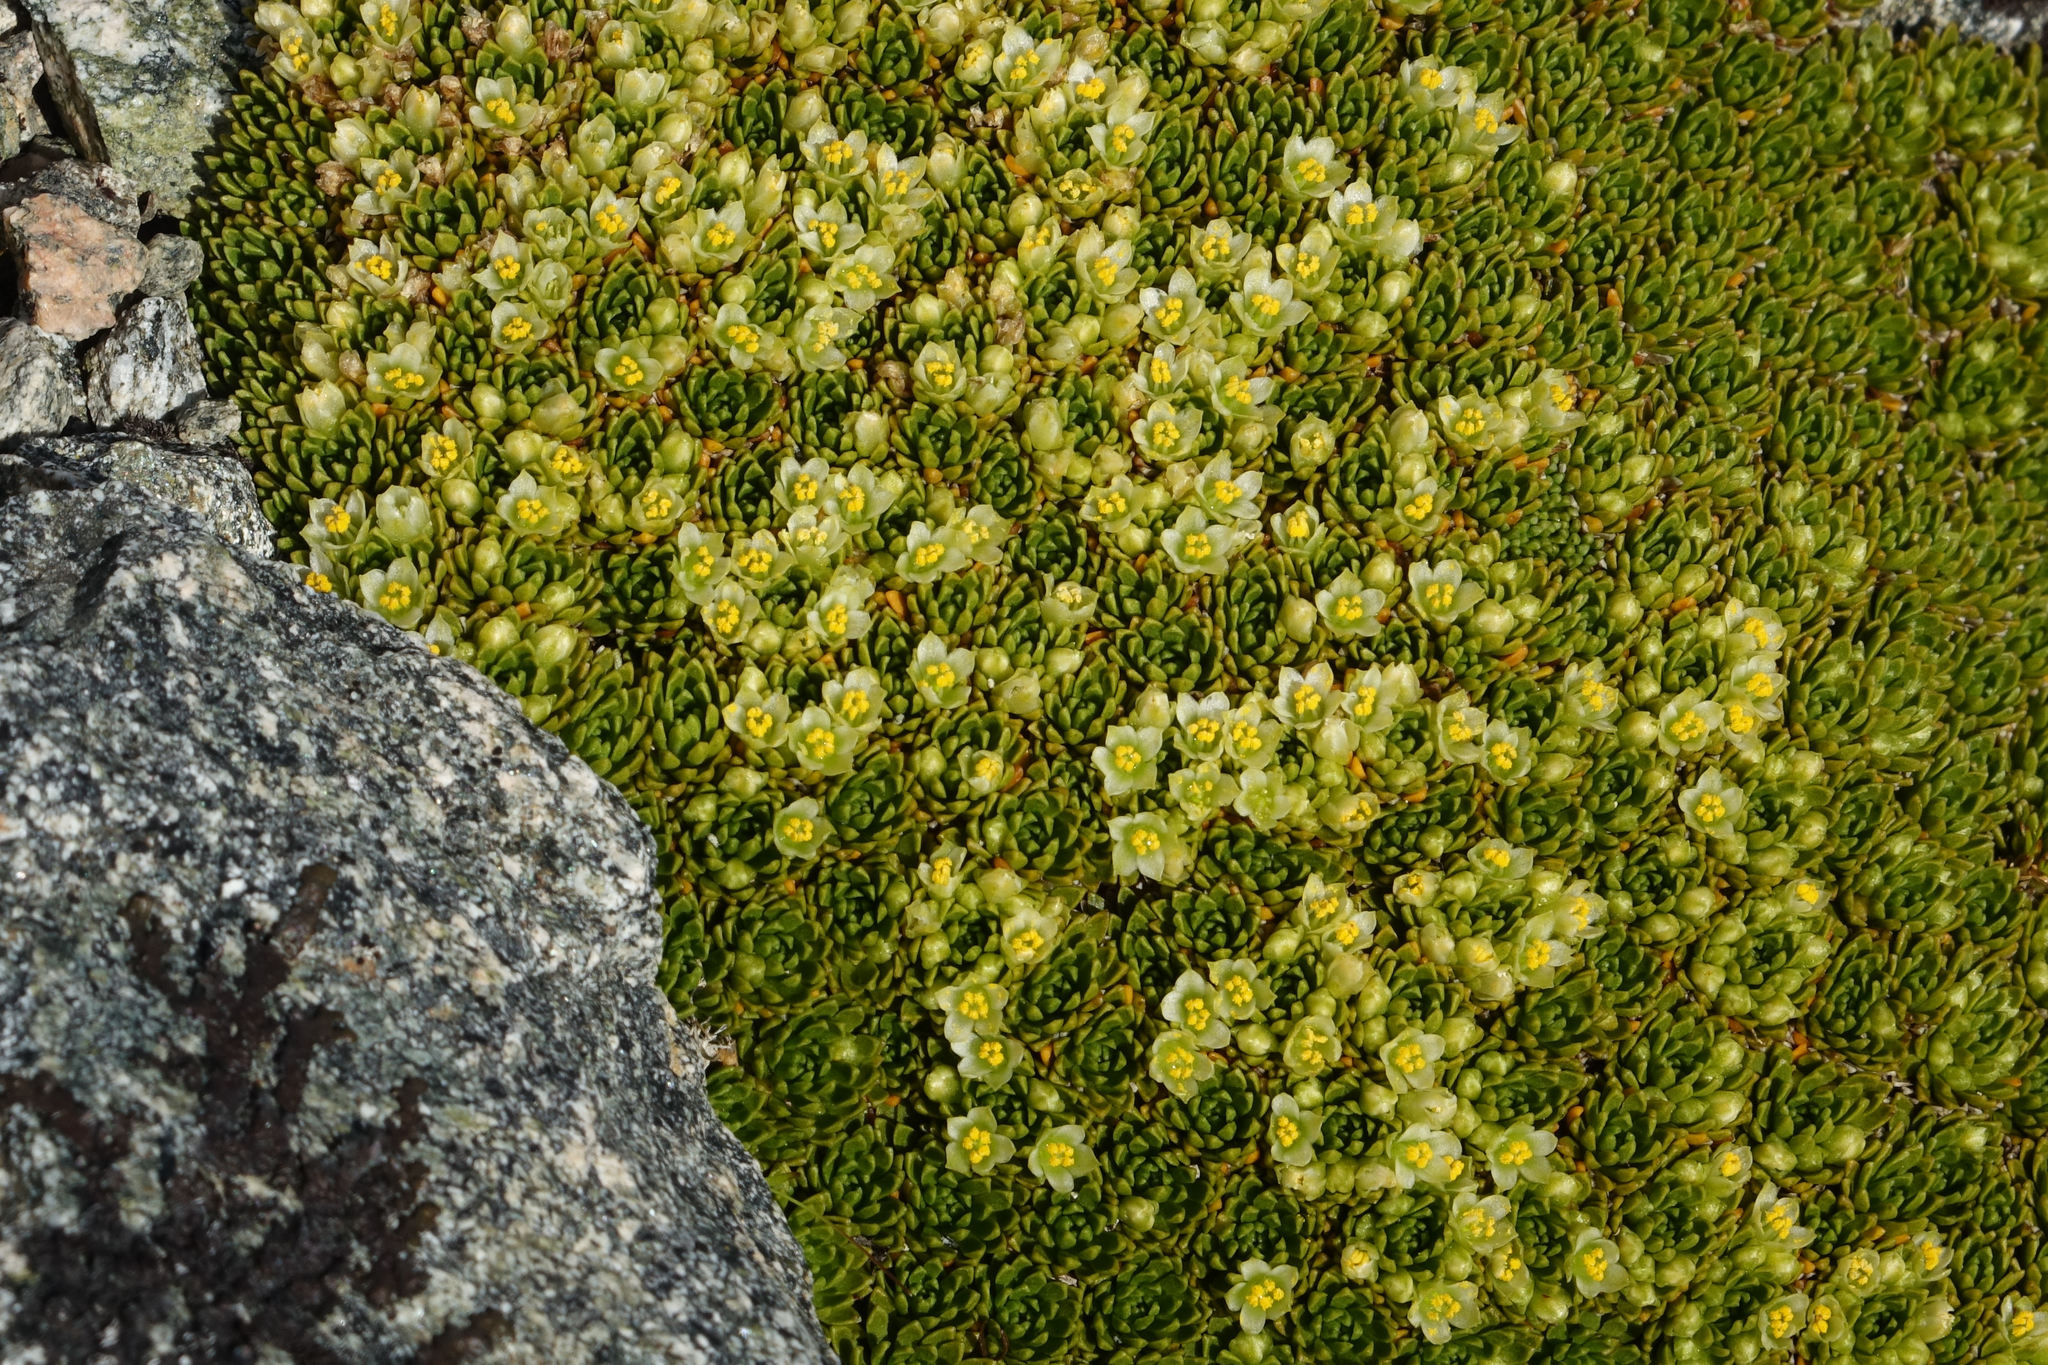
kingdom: Plantae
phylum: Tracheophyta
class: Magnoliopsida
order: Caryophyllales
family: Montiaceae
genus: Hectorella
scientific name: Hectorella caespitosa
